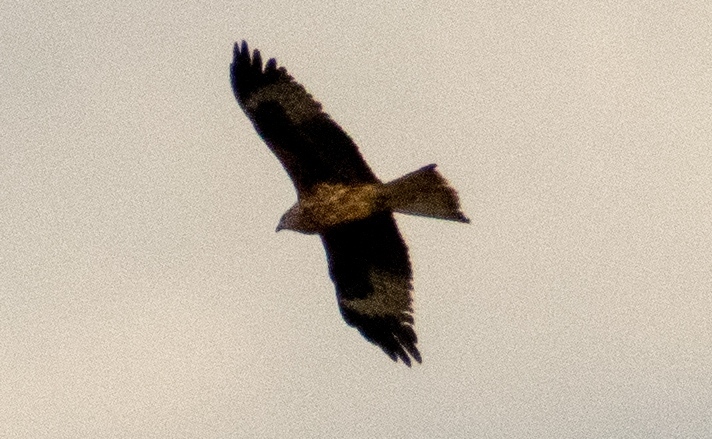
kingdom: Animalia
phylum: Chordata
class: Aves
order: Accipitriformes
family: Accipitridae
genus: Milvus
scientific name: Milvus migrans
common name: Black kite
